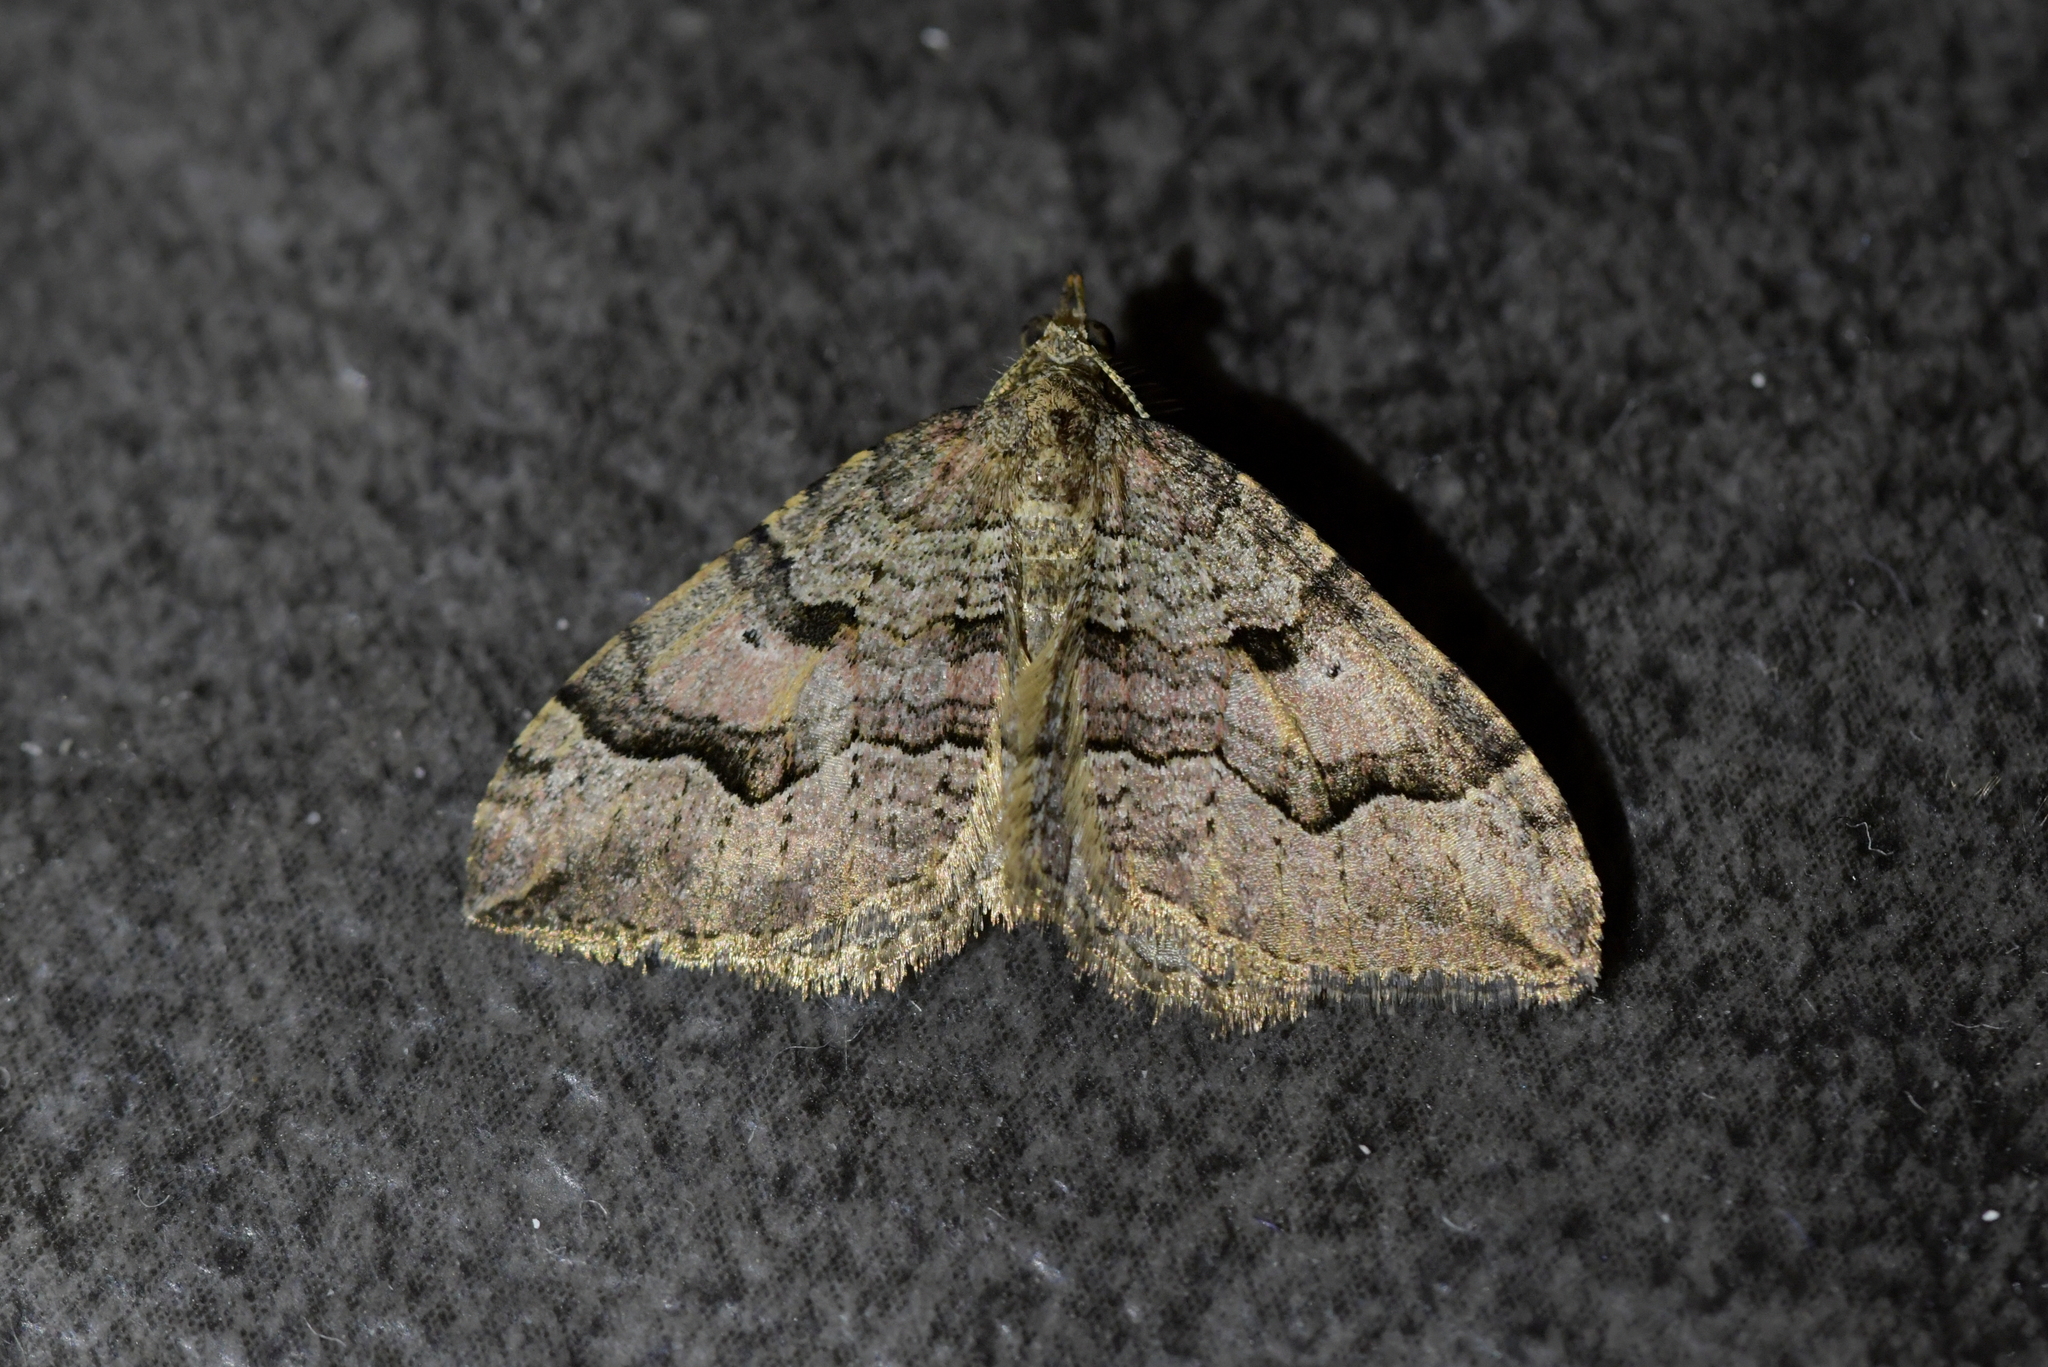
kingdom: Animalia
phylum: Arthropoda
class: Insecta
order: Lepidoptera
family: Geometridae
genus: Epyaxa
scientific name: Epyaxa rosearia
